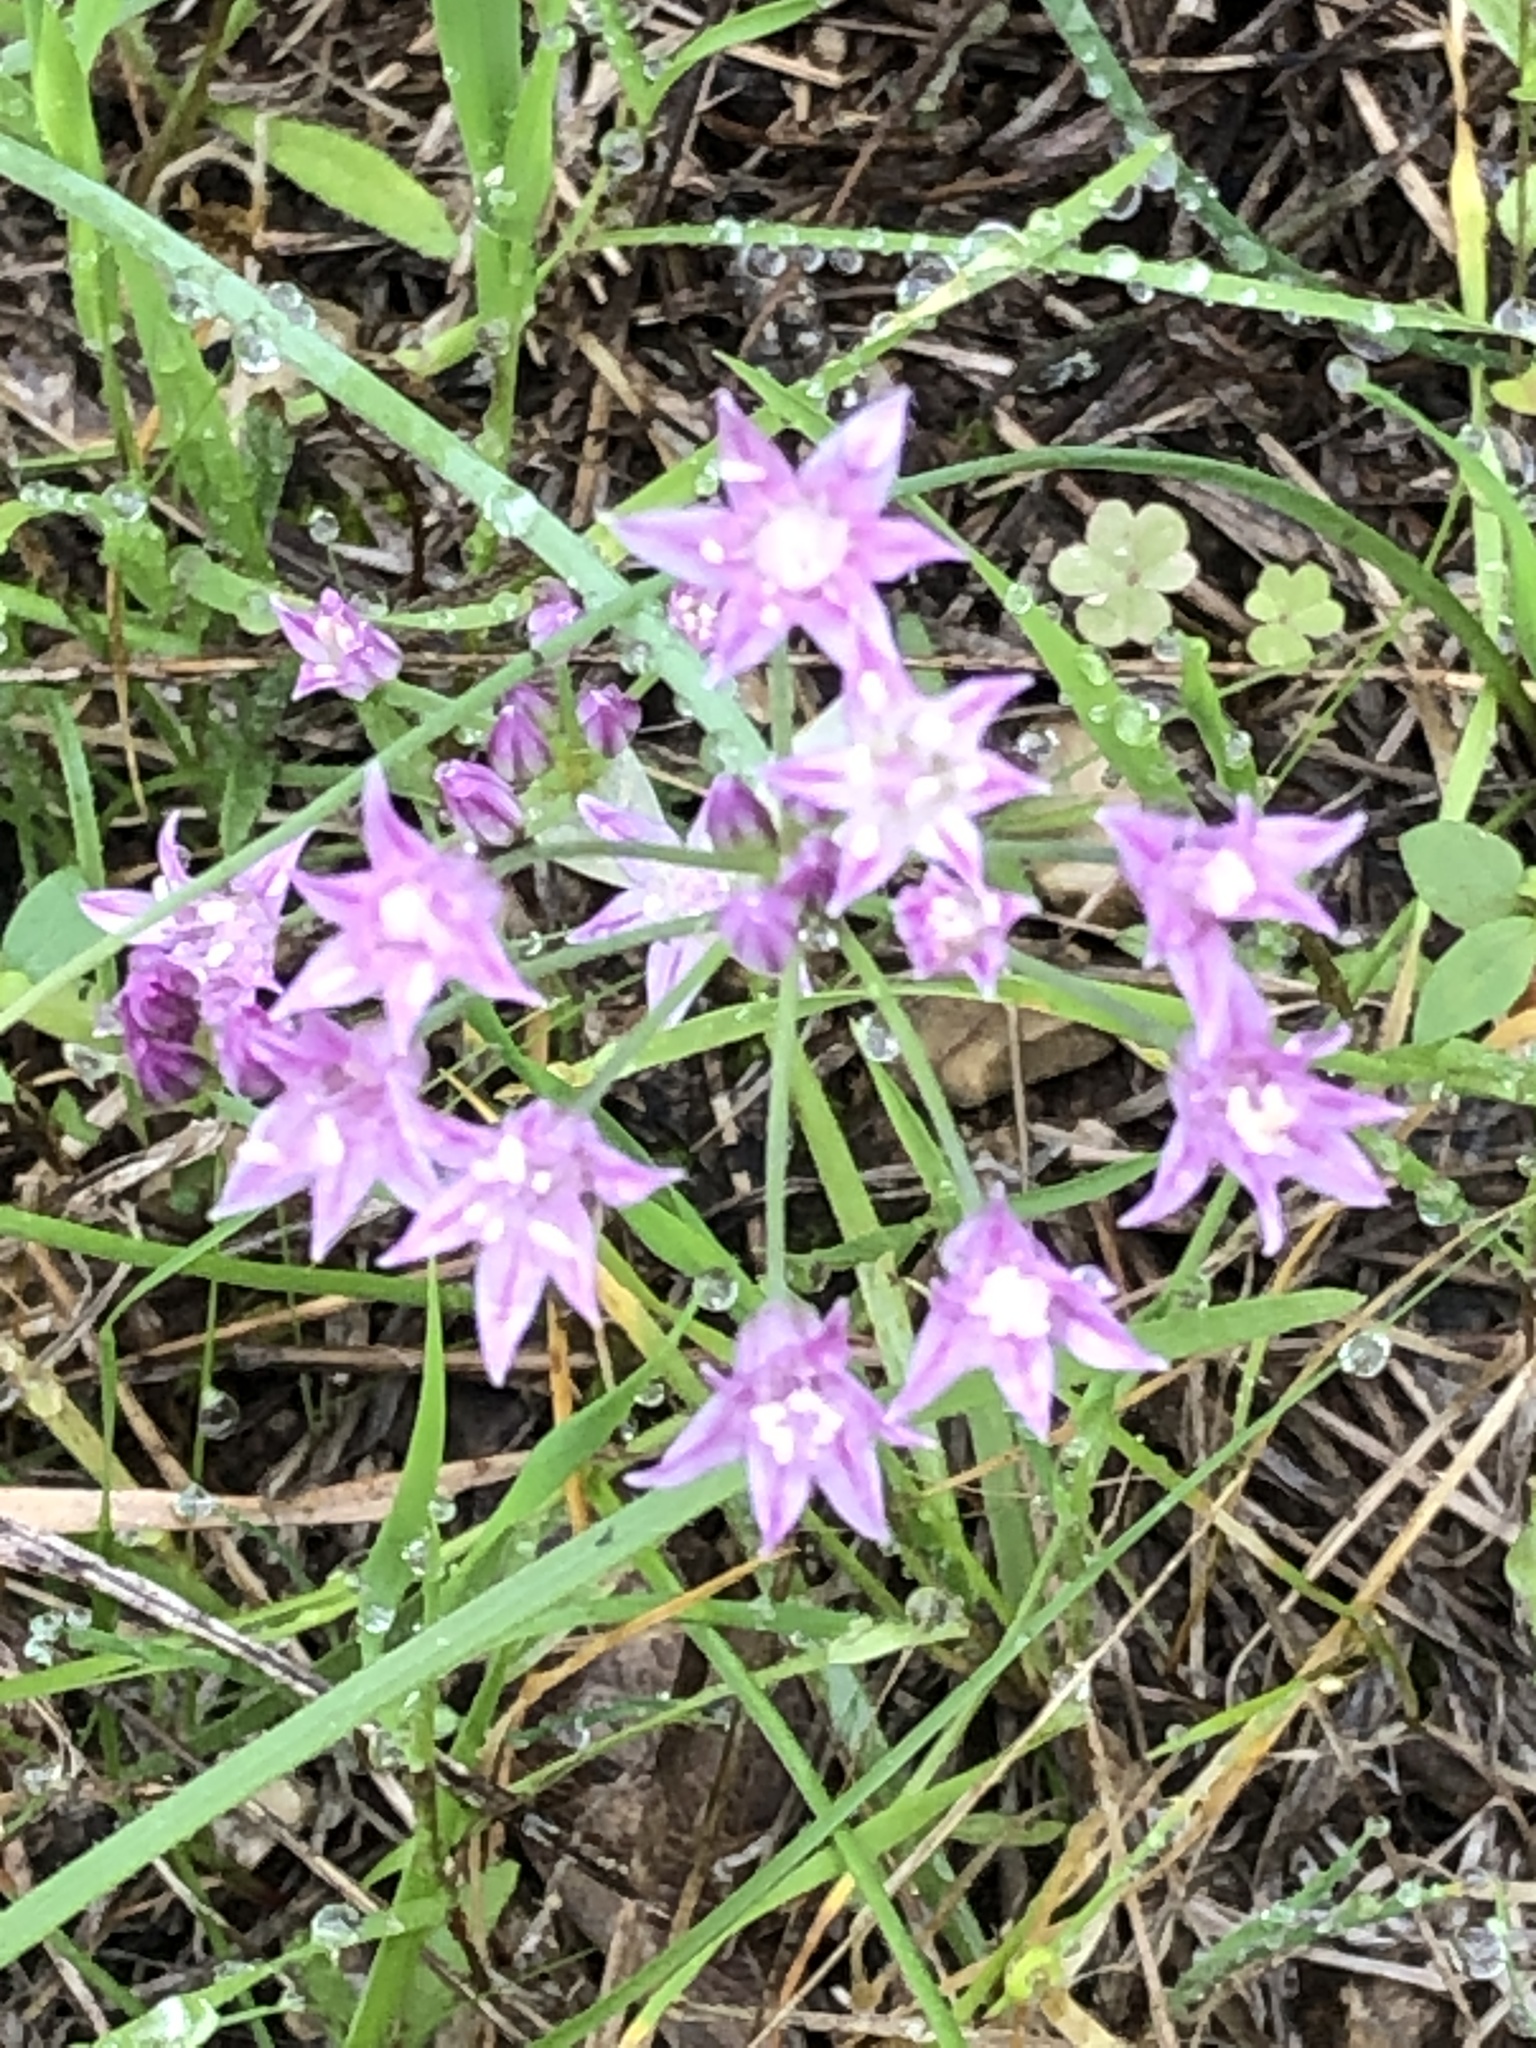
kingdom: Plantae
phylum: Tracheophyta
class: Liliopsida
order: Asparagales
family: Amaryllidaceae
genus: Allium
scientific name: Allium drummondii
